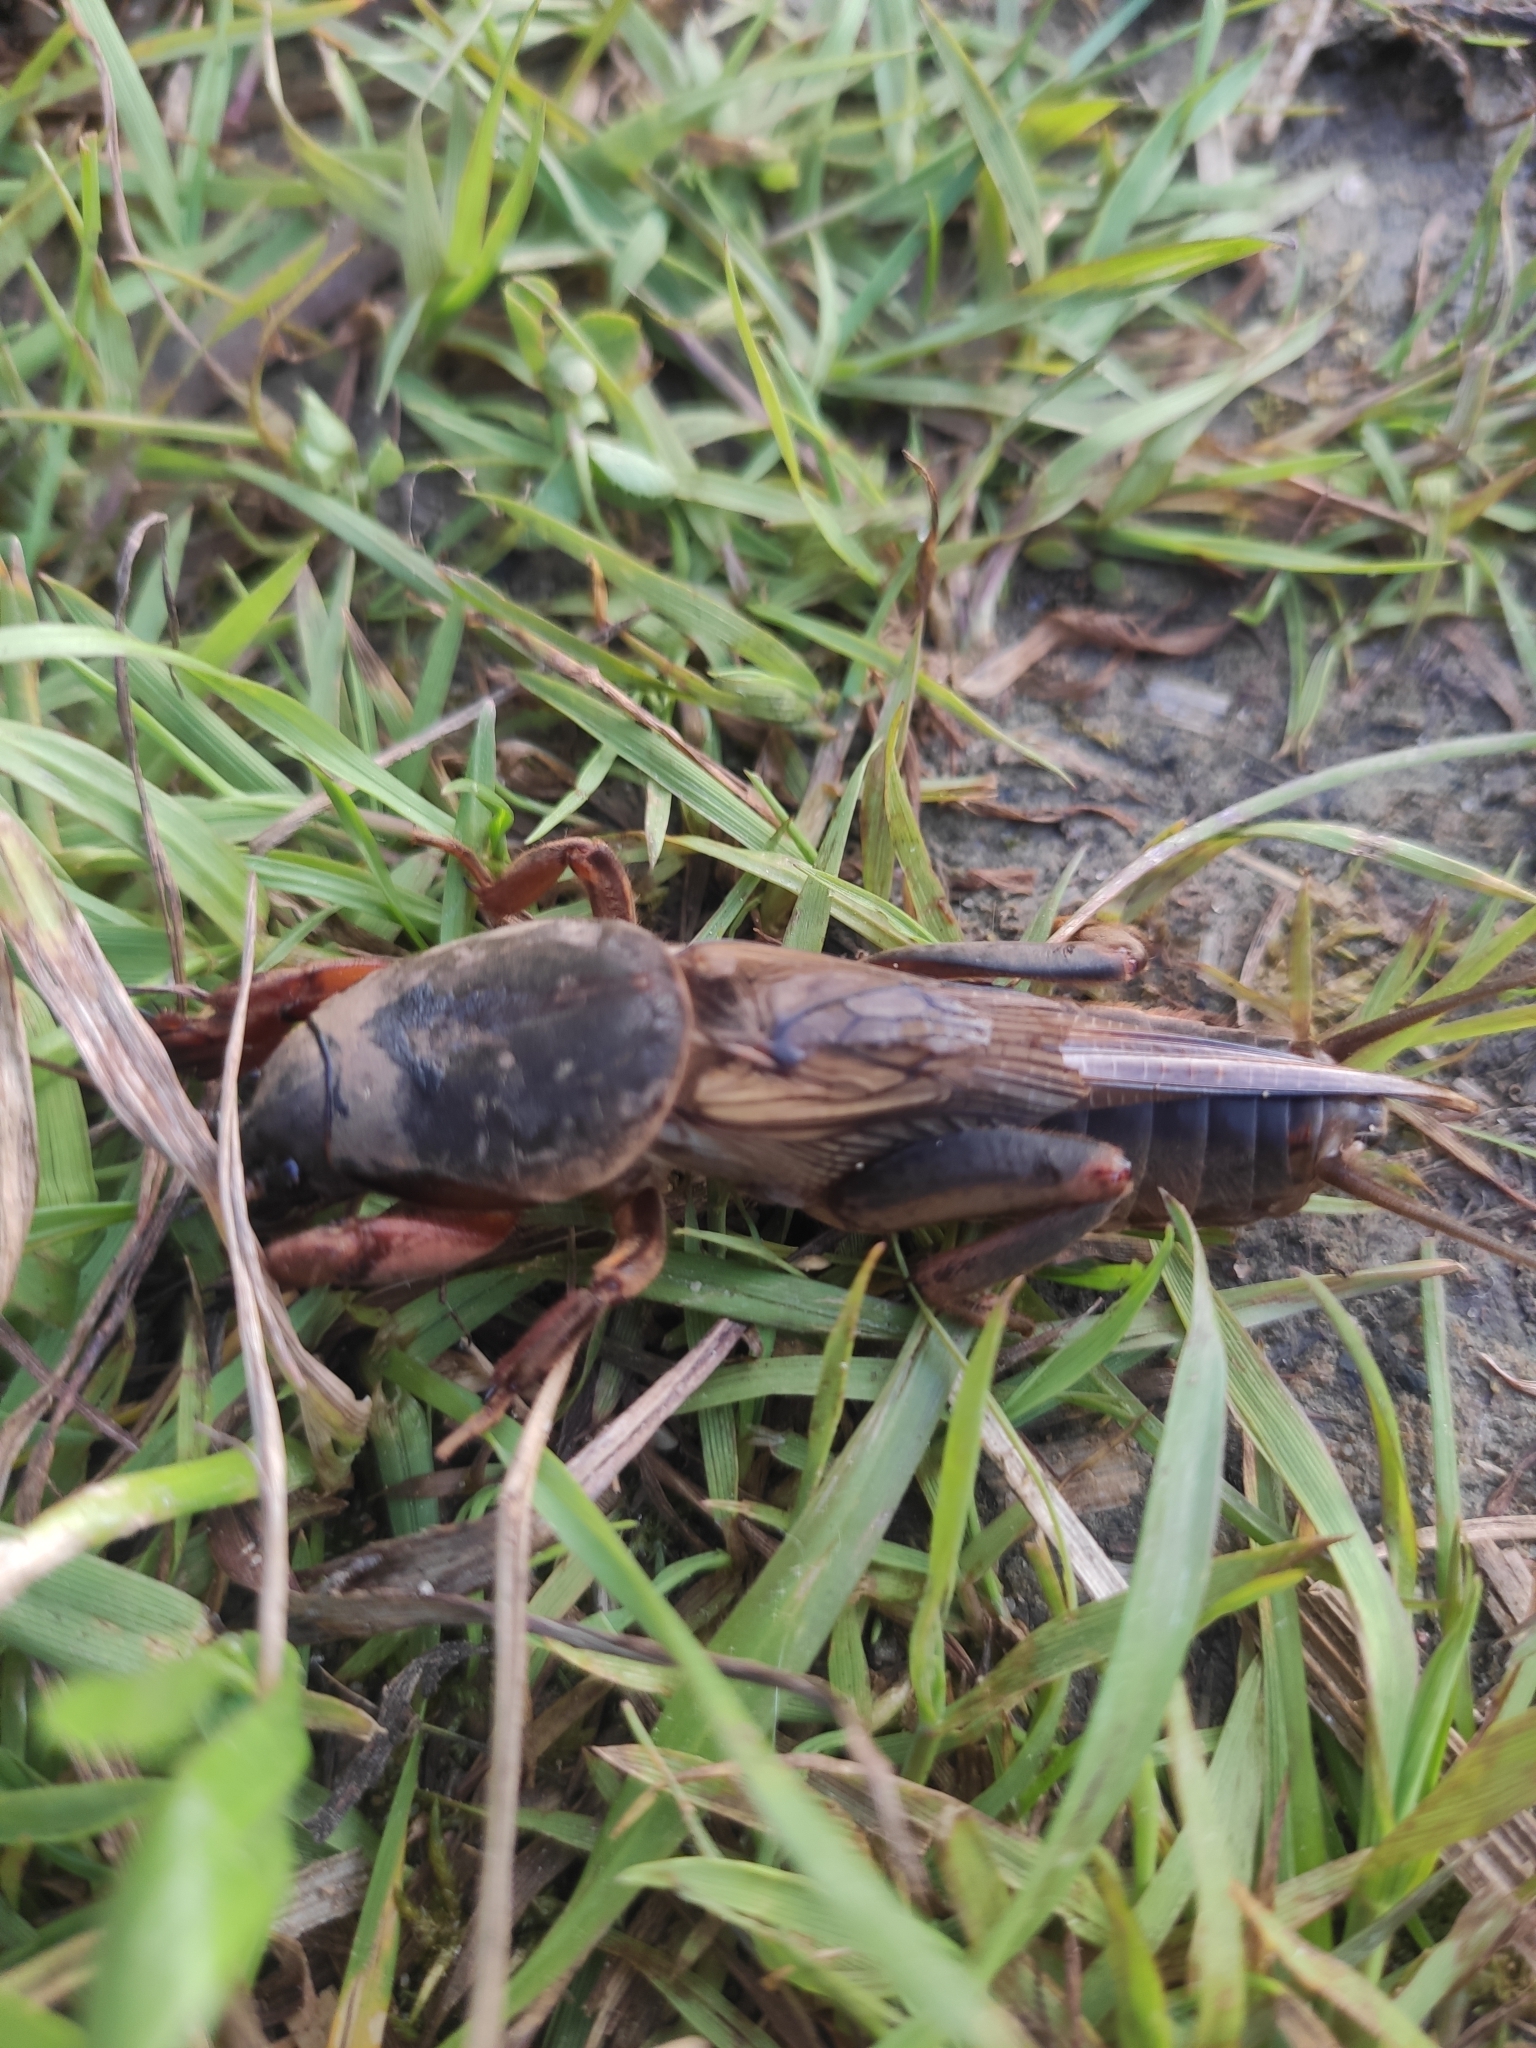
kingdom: Animalia
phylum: Arthropoda
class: Insecta
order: Orthoptera
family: Gryllotalpidae
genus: Gryllotalpa
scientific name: Gryllotalpa gryllotalpa
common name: European mole cricket
